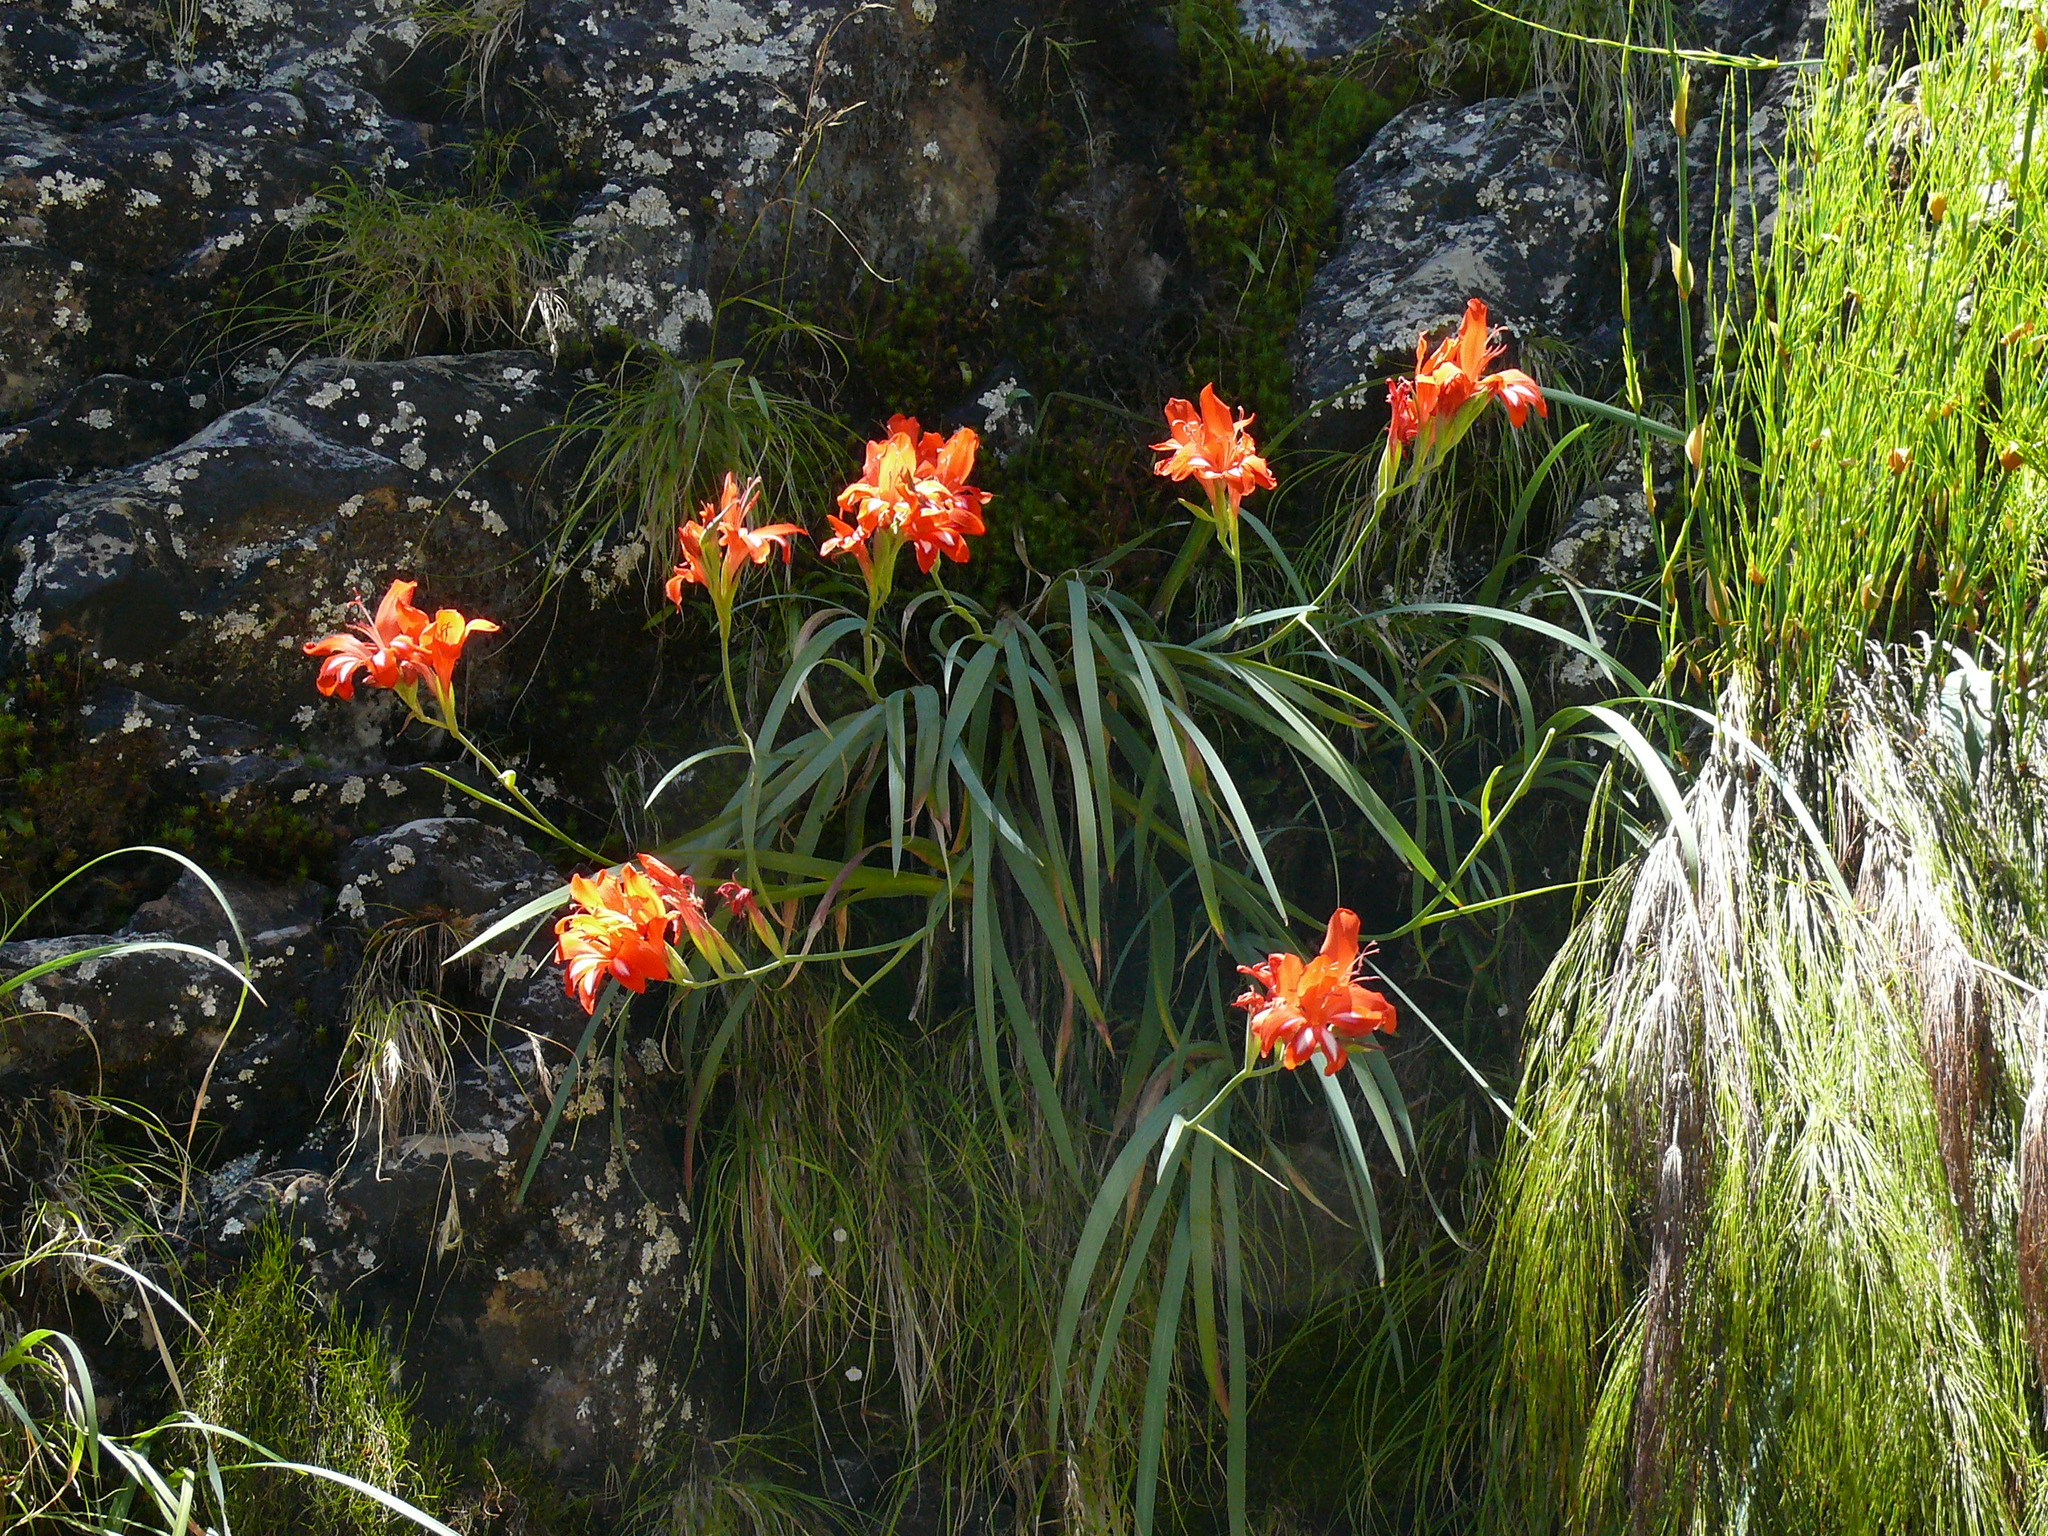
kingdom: Plantae
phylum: Tracheophyta
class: Liliopsida
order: Asparagales
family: Iridaceae
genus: Gladiolus
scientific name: Gladiolus cardinalis
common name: New year-lily
